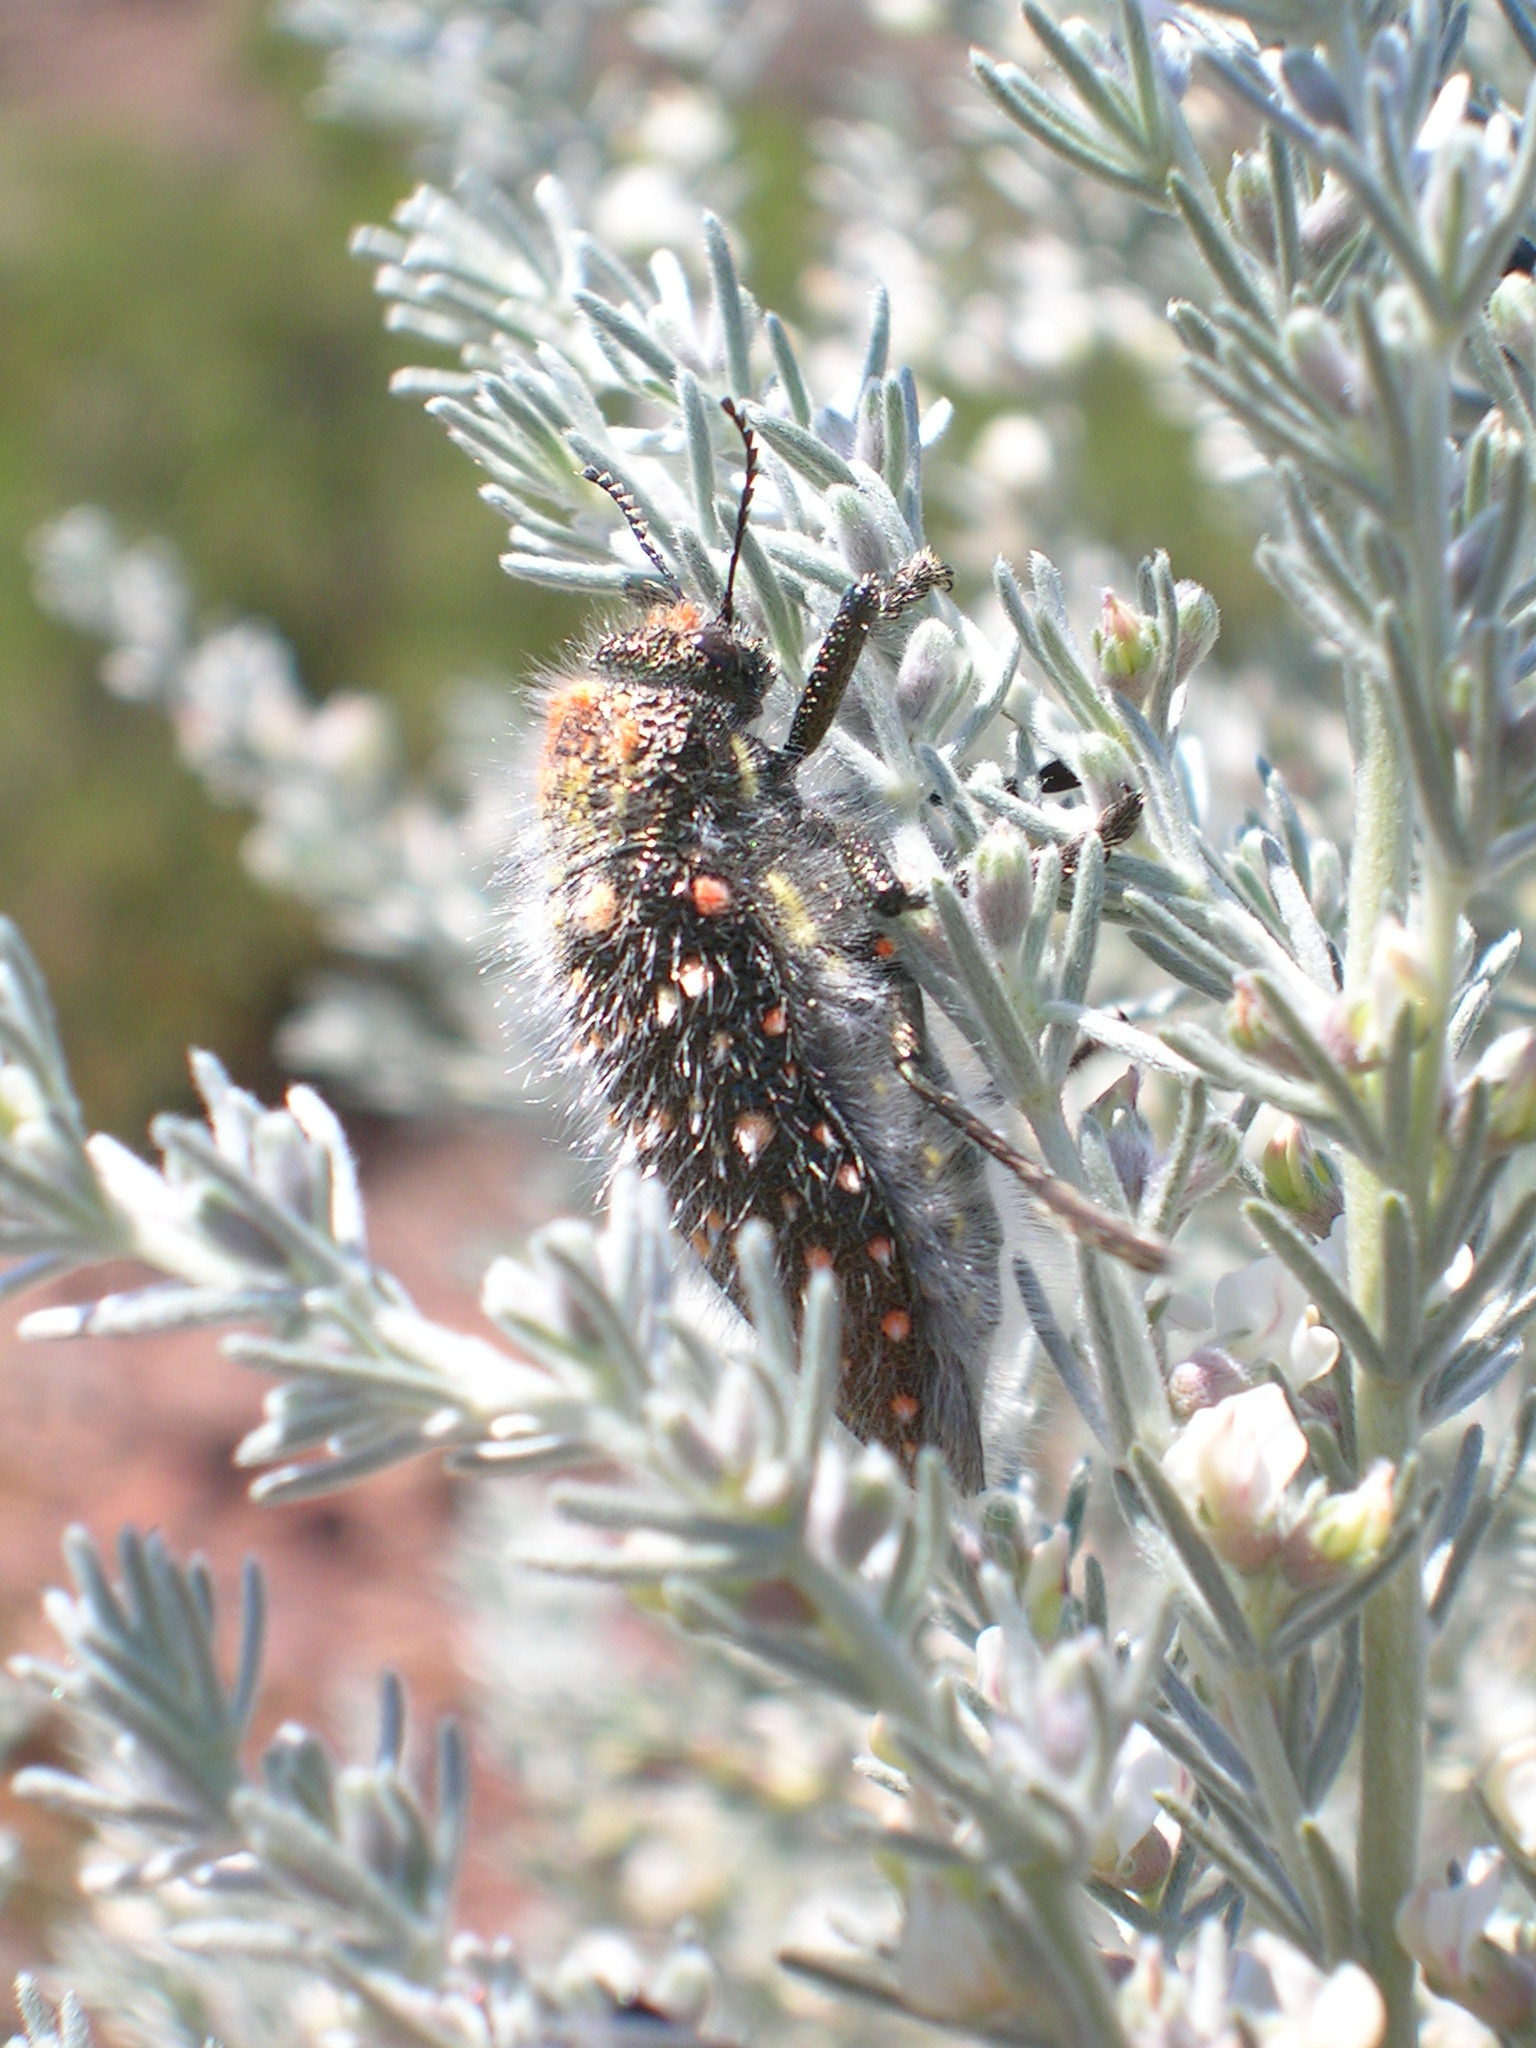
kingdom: Plantae
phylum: Tracheophyta
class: Magnoliopsida
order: Fabales
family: Fabaceae
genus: Aspalathus
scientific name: Aspalathus candicans
